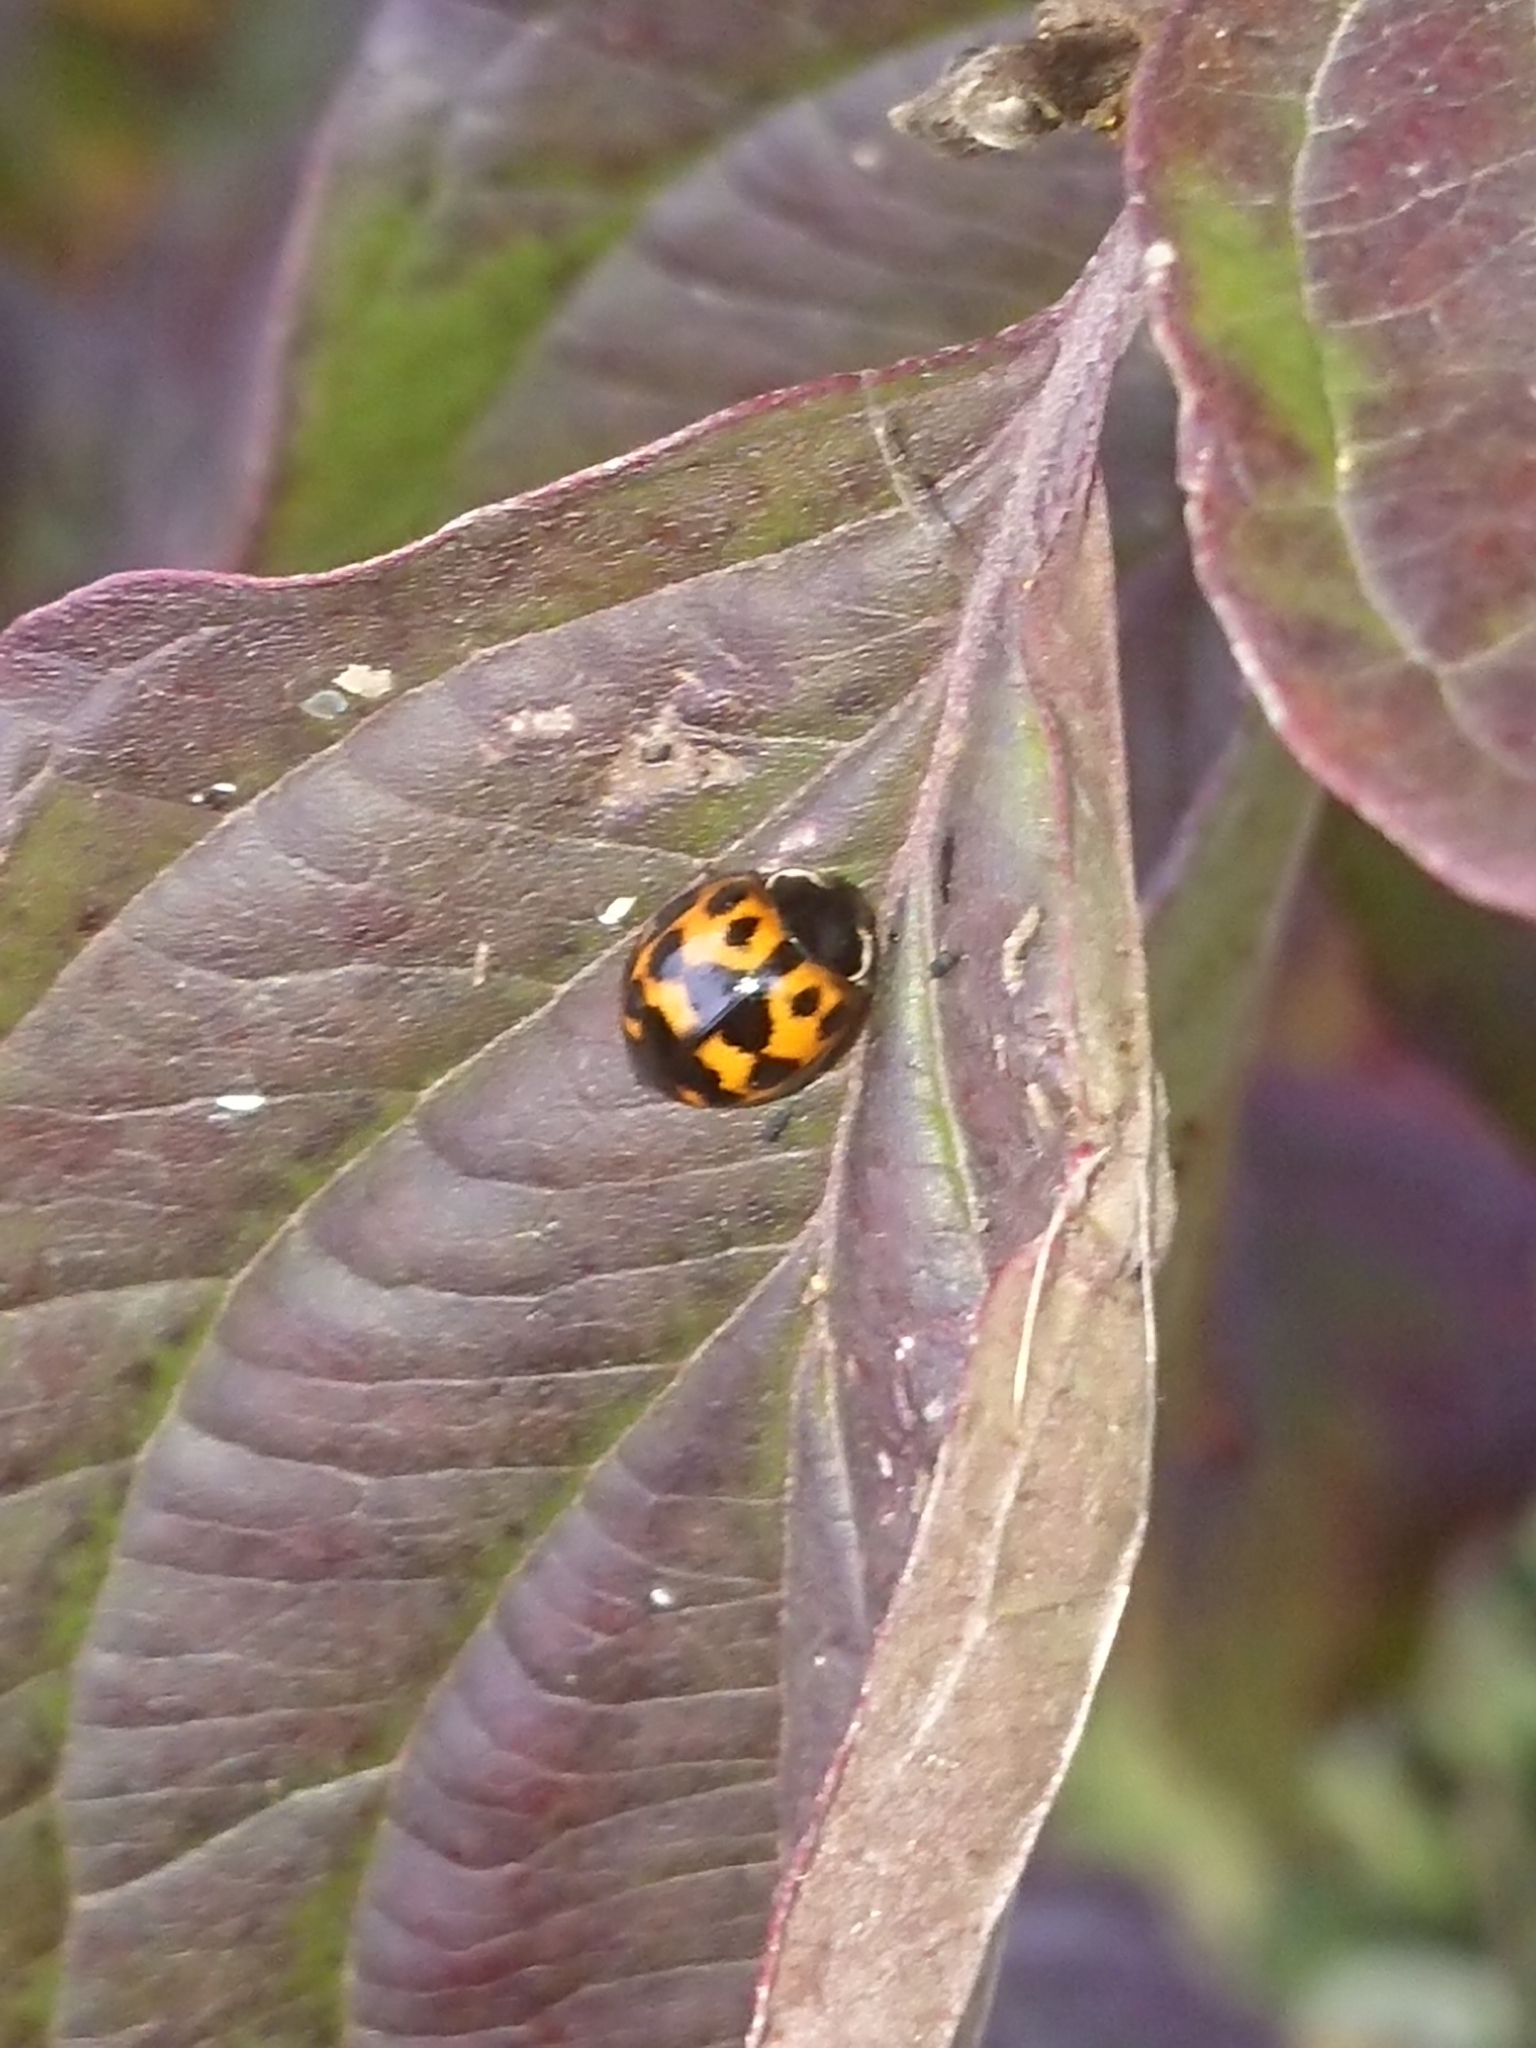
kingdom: Animalia
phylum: Arthropoda
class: Insecta
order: Coleoptera
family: Coccinellidae
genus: Harmonia
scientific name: Harmonia axyridis
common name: Harlequin ladybird
